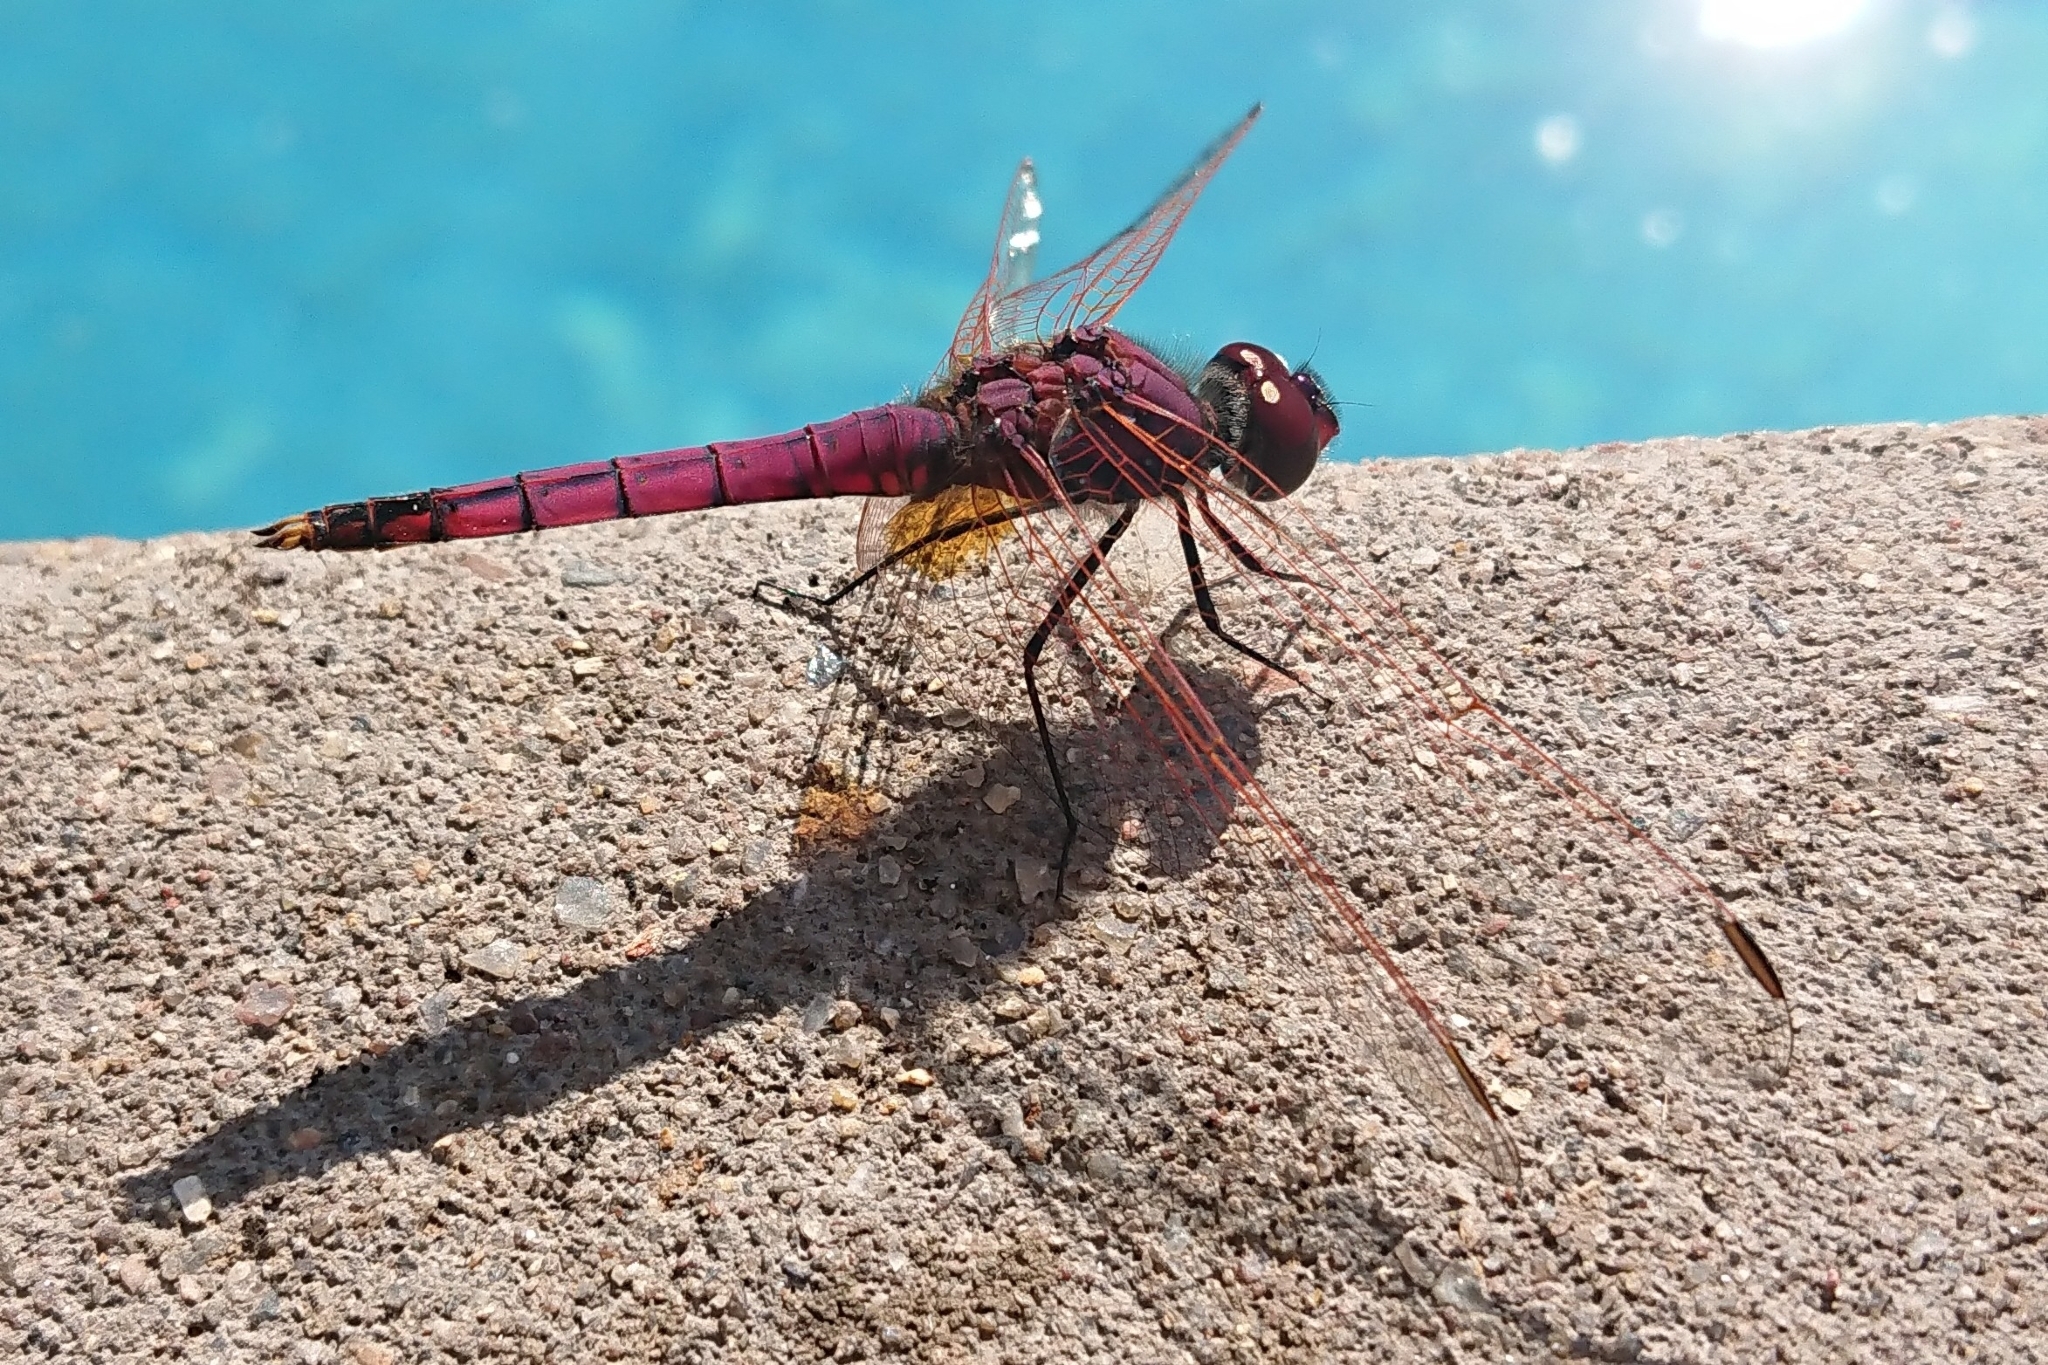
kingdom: Animalia
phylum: Arthropoda
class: Insecta
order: Odonata
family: Libellulidae
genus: Trithemis
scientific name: Trithemis annulata
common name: Violet dropwing
